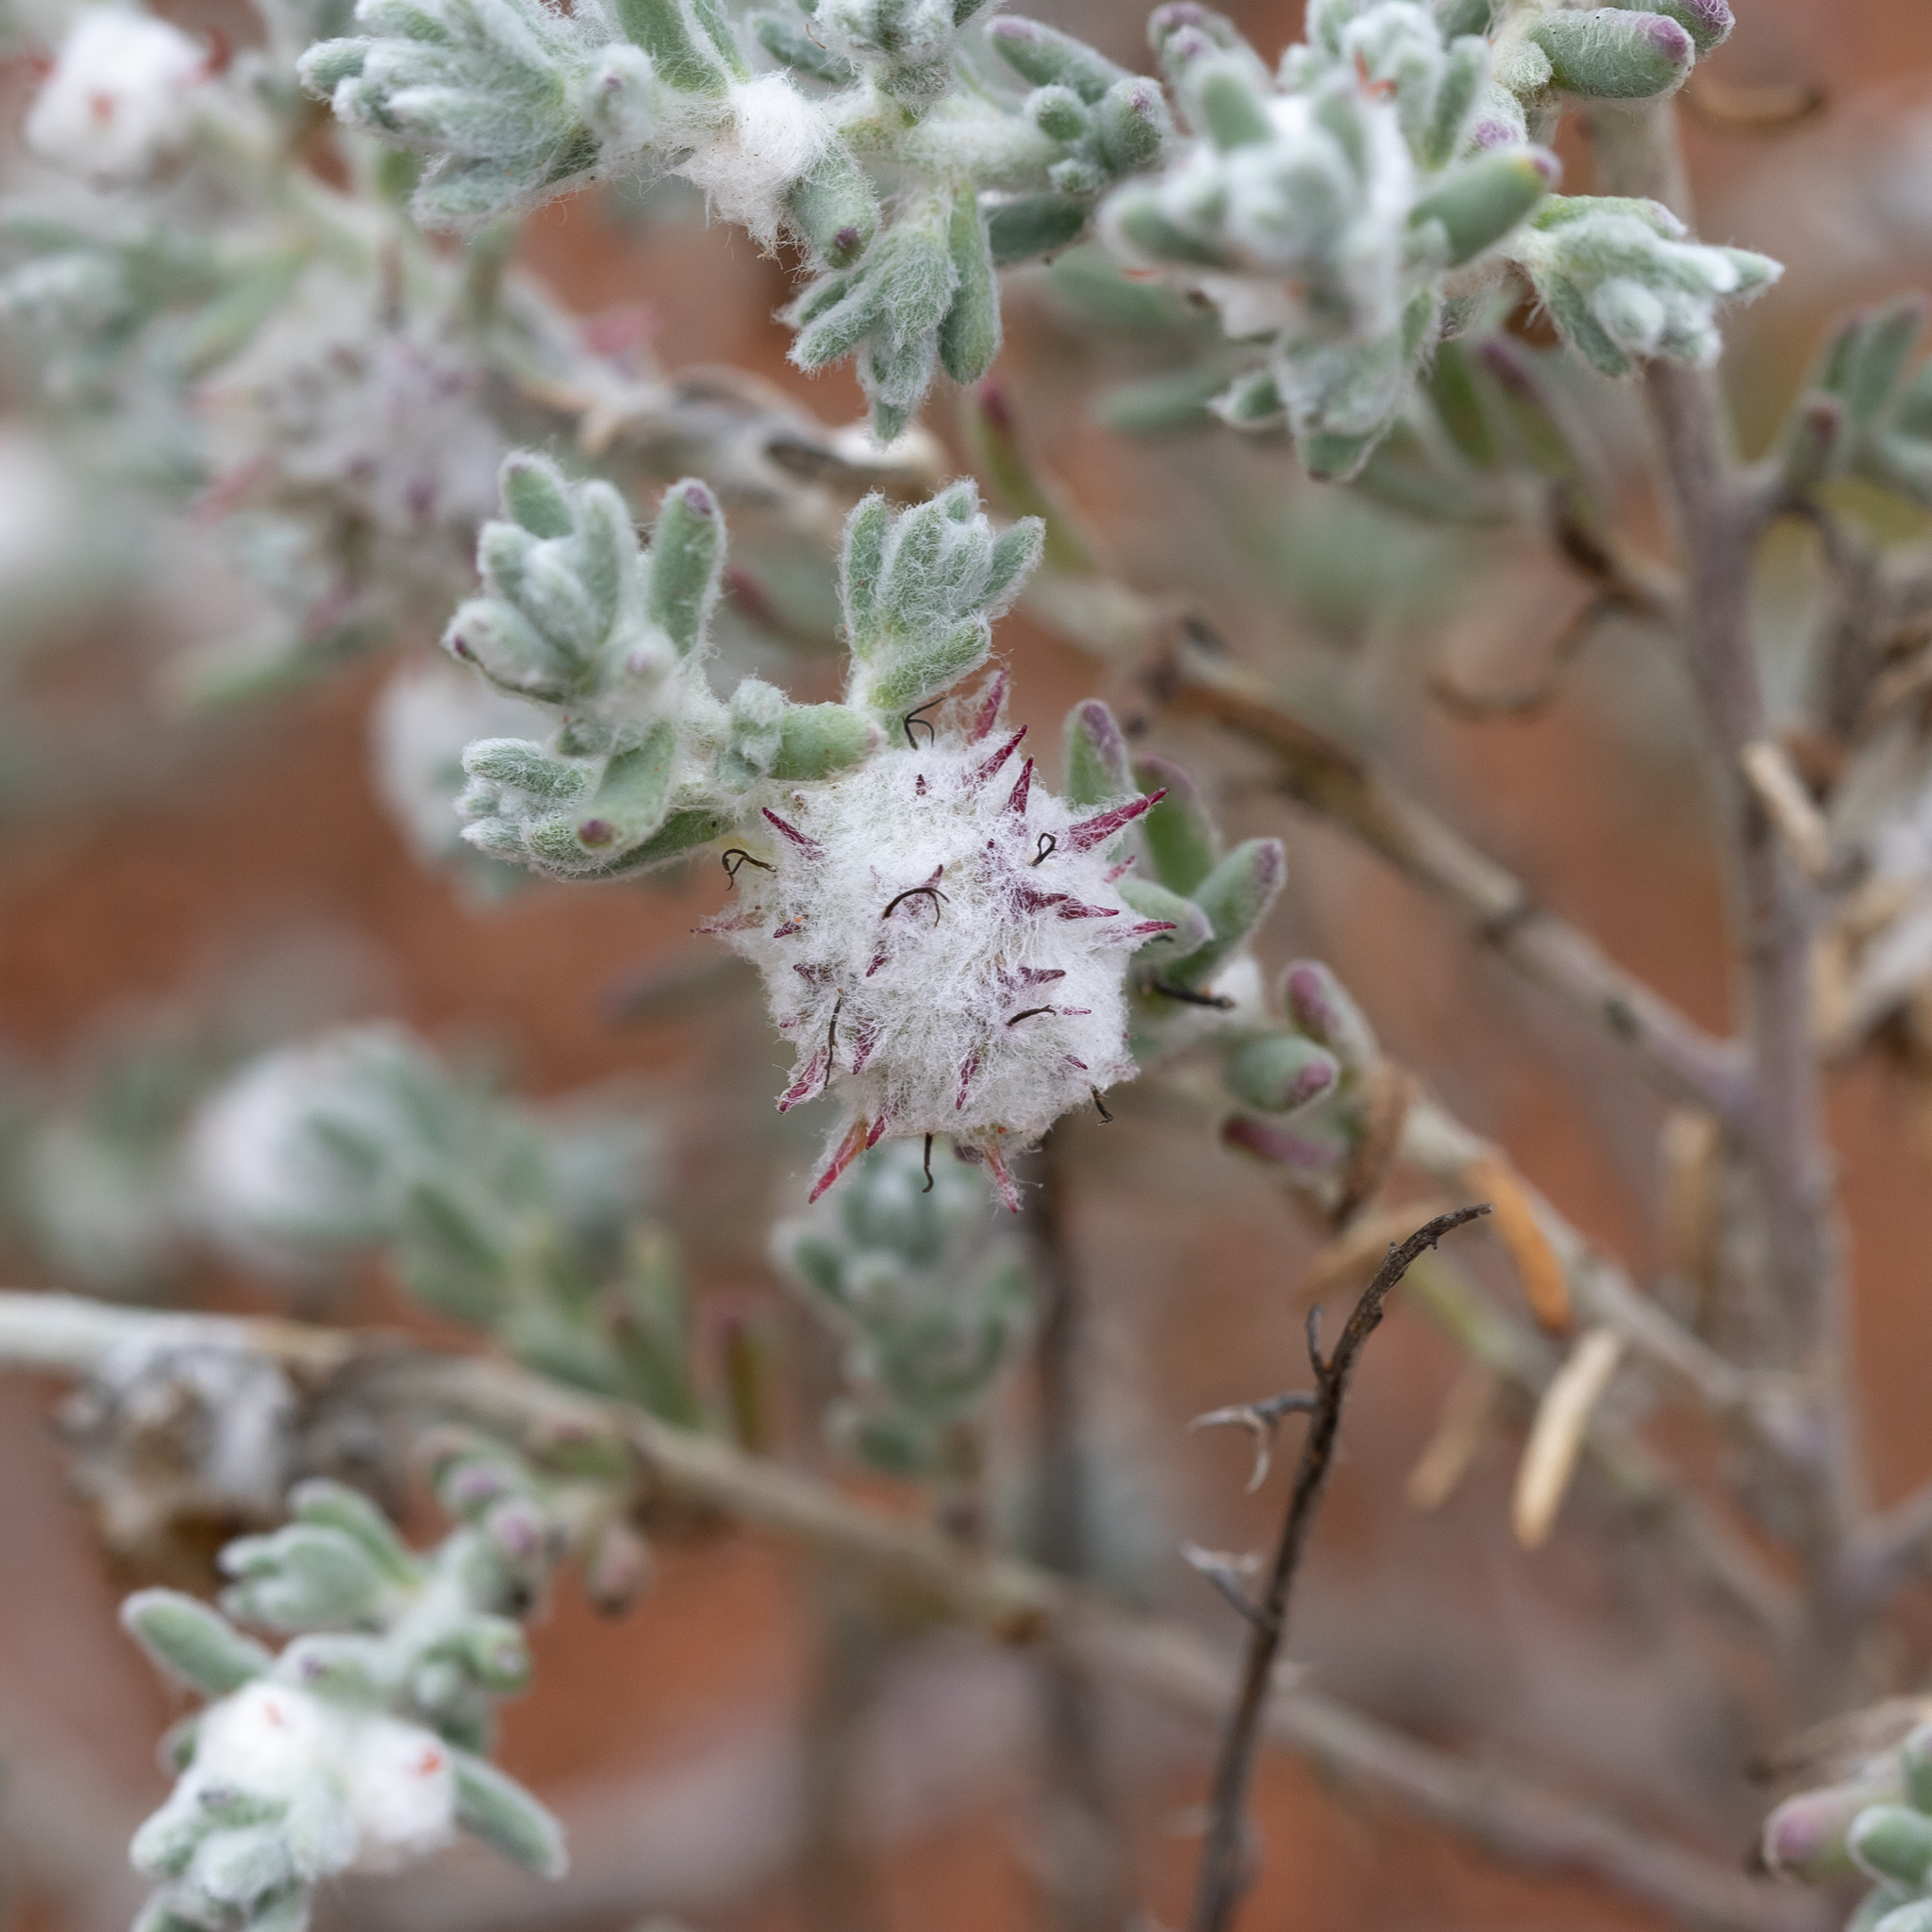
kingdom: Plantae
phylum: Tracheophyta
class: Magnoliopsida
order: Caryophyllales
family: Amaranthaceae
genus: Dissocarpus
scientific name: Dissocarpus paradoxus
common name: Bur-saltbush
